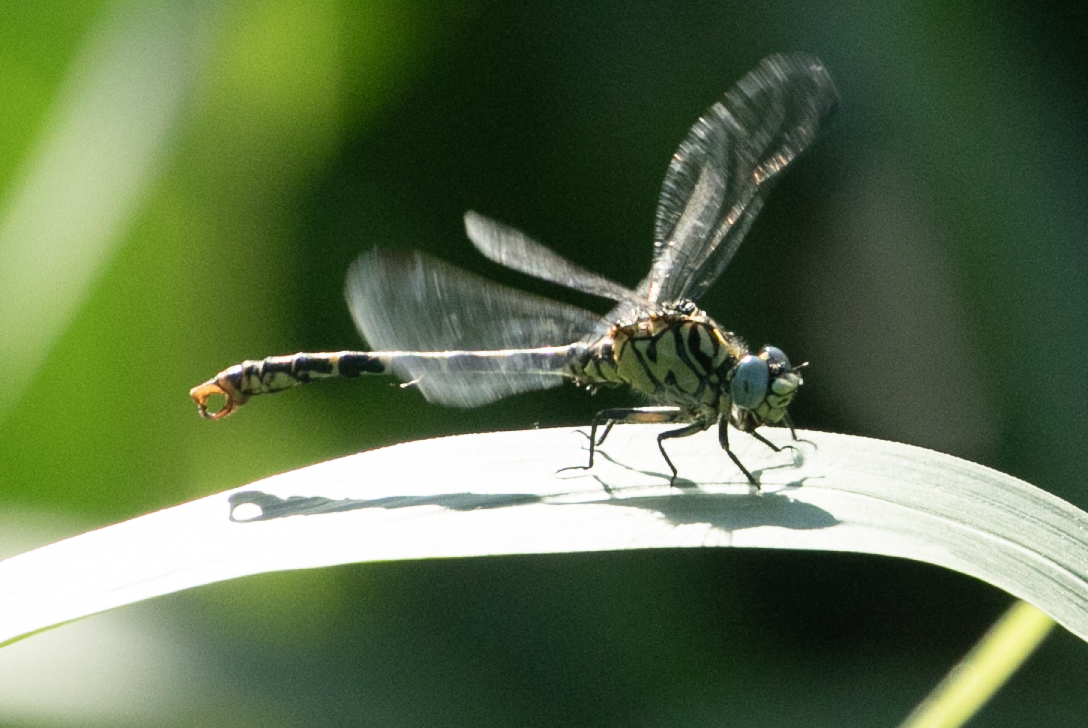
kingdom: Animalia
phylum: Arthropoda
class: Insecta
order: Odonata
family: Gomphidae
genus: Onychogomphus
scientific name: Onychogomphus forcipatus
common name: Small pincertail
